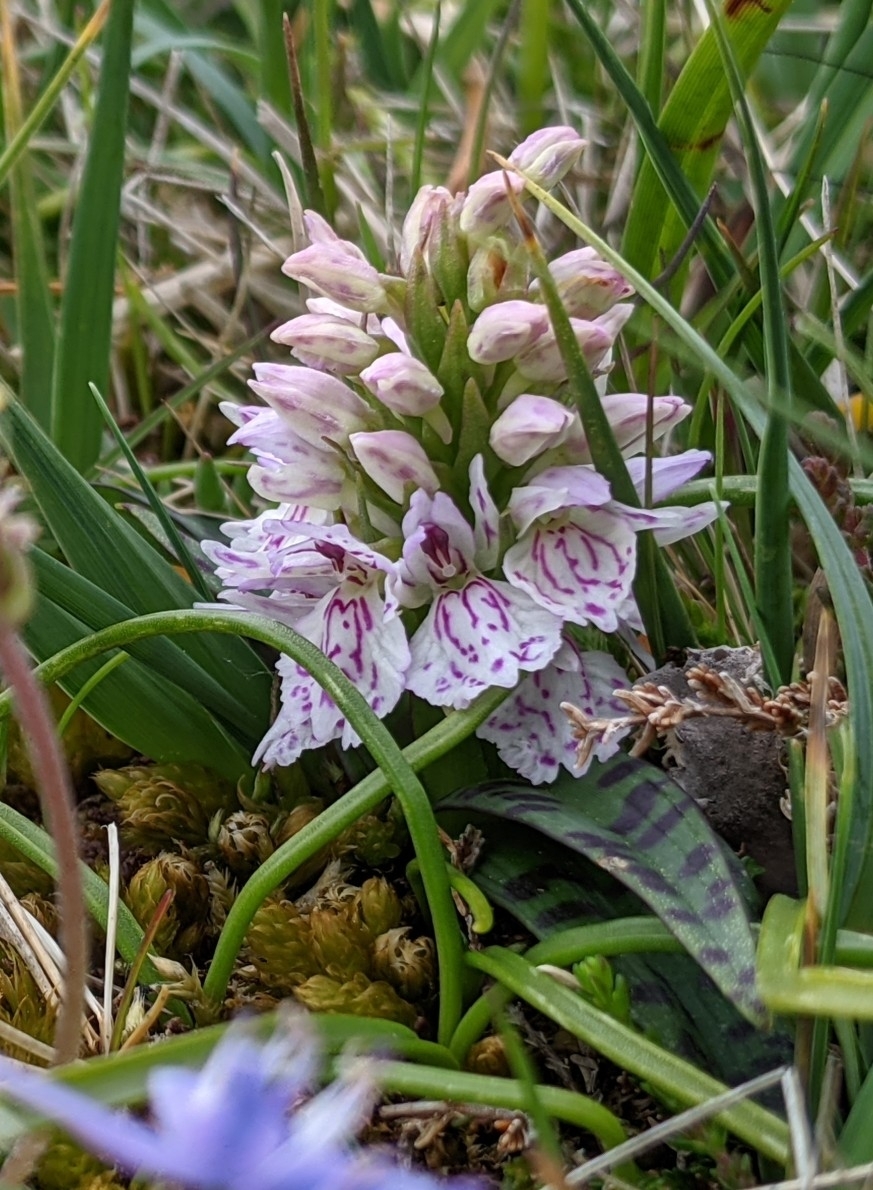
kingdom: Plantae
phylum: Tracheophyta
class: Liliopsida
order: Asparagales
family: Orchidaceae
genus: Dactylorhiza
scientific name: Dactylorhiza maculata
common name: Heath spotted-orchid
